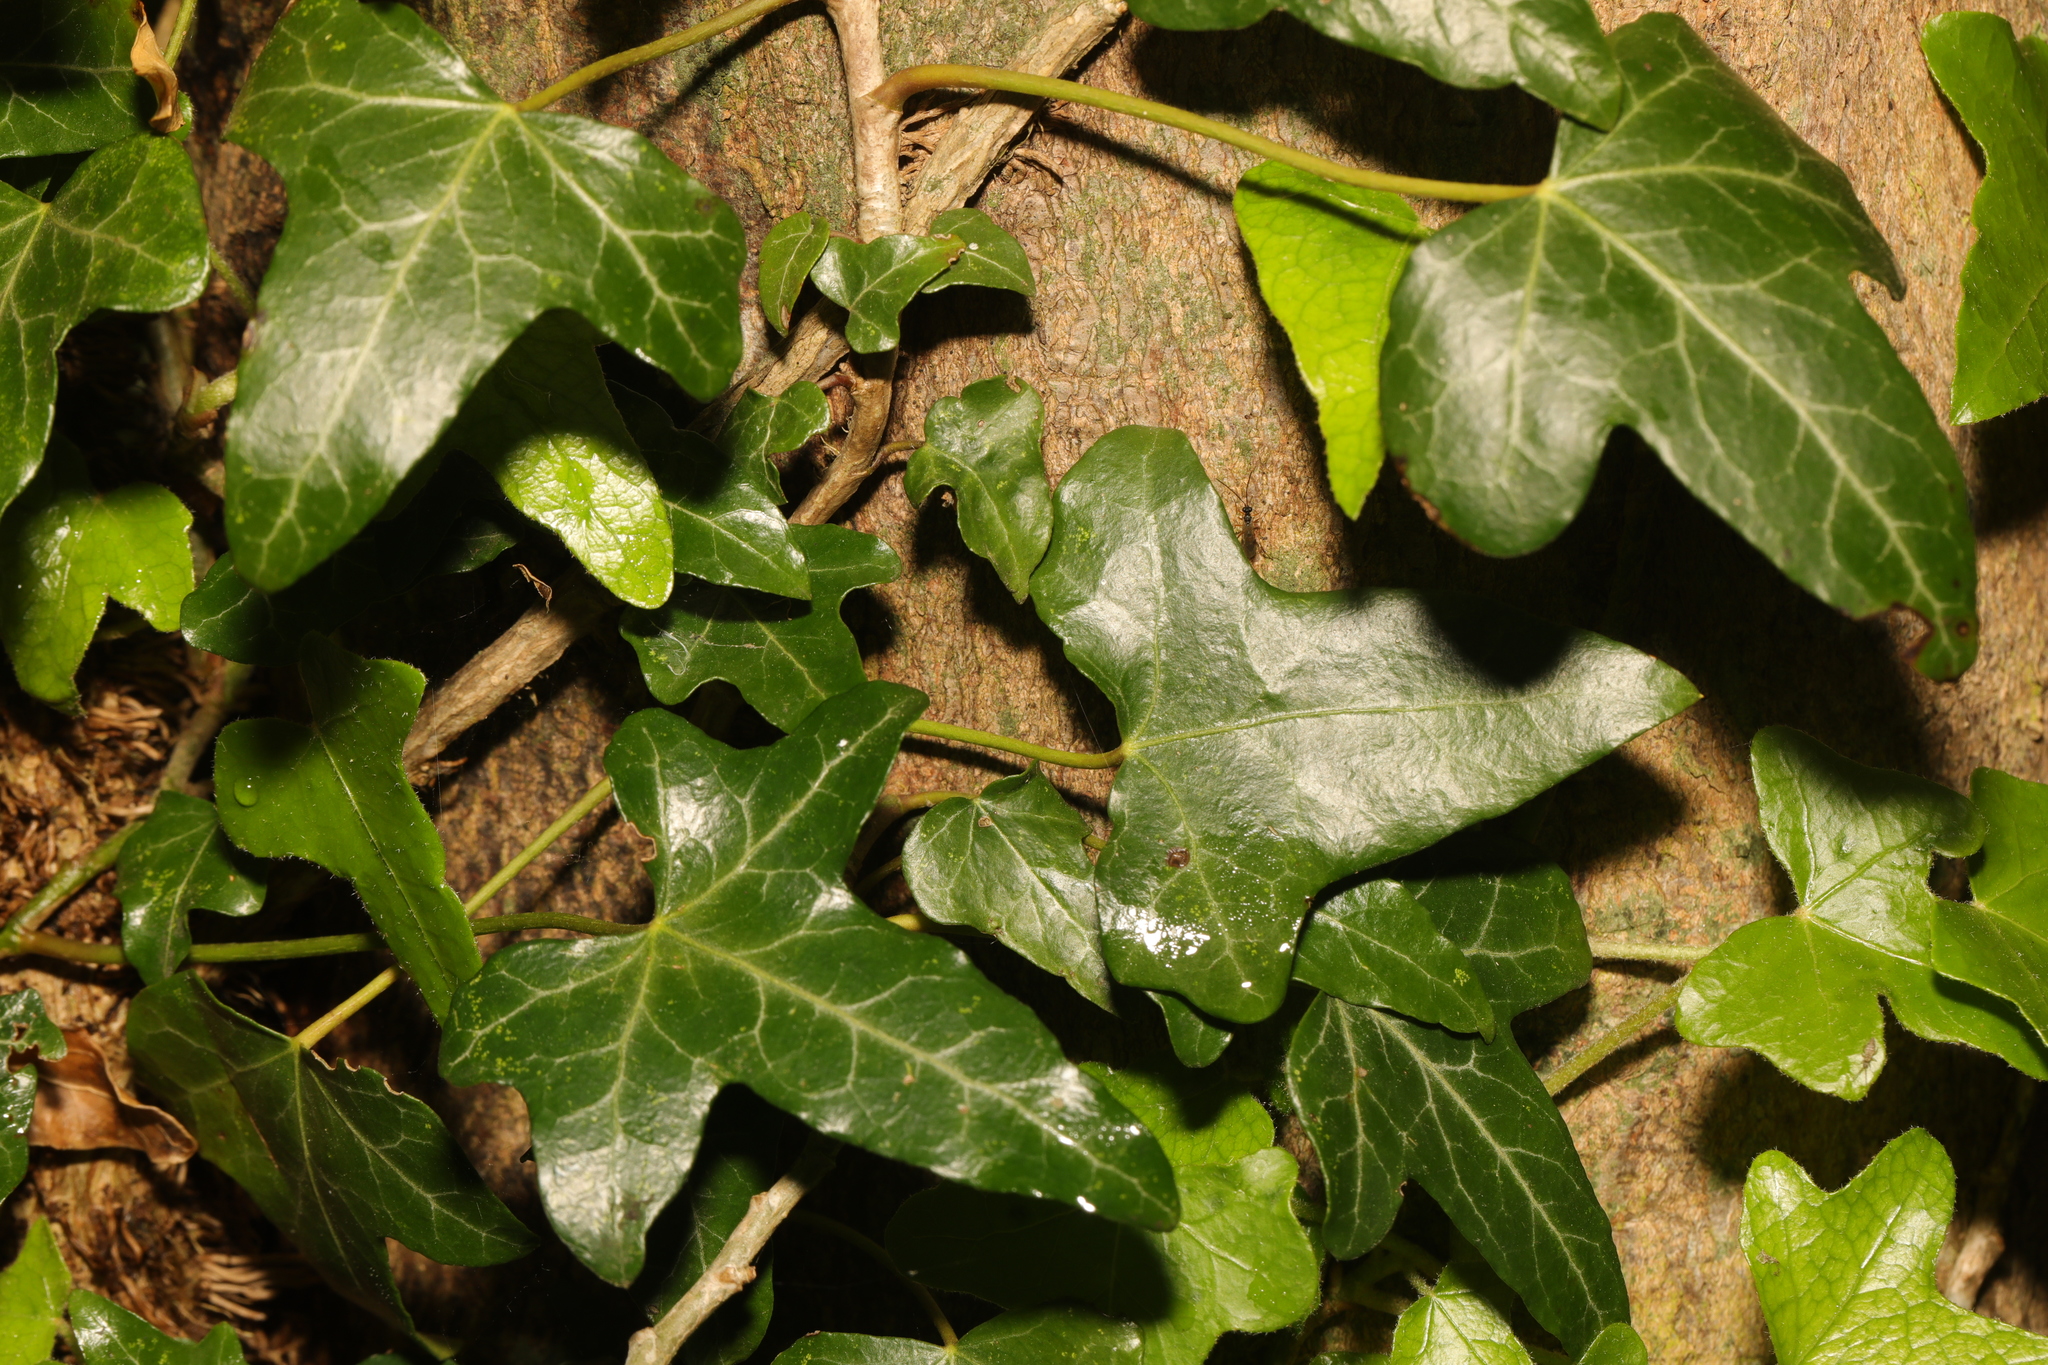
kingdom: Plantae
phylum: Tracheophyta
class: Magnoliopsida
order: Apiales
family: Araliaceae
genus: Hedera
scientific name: Hedera helix
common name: Ivy
